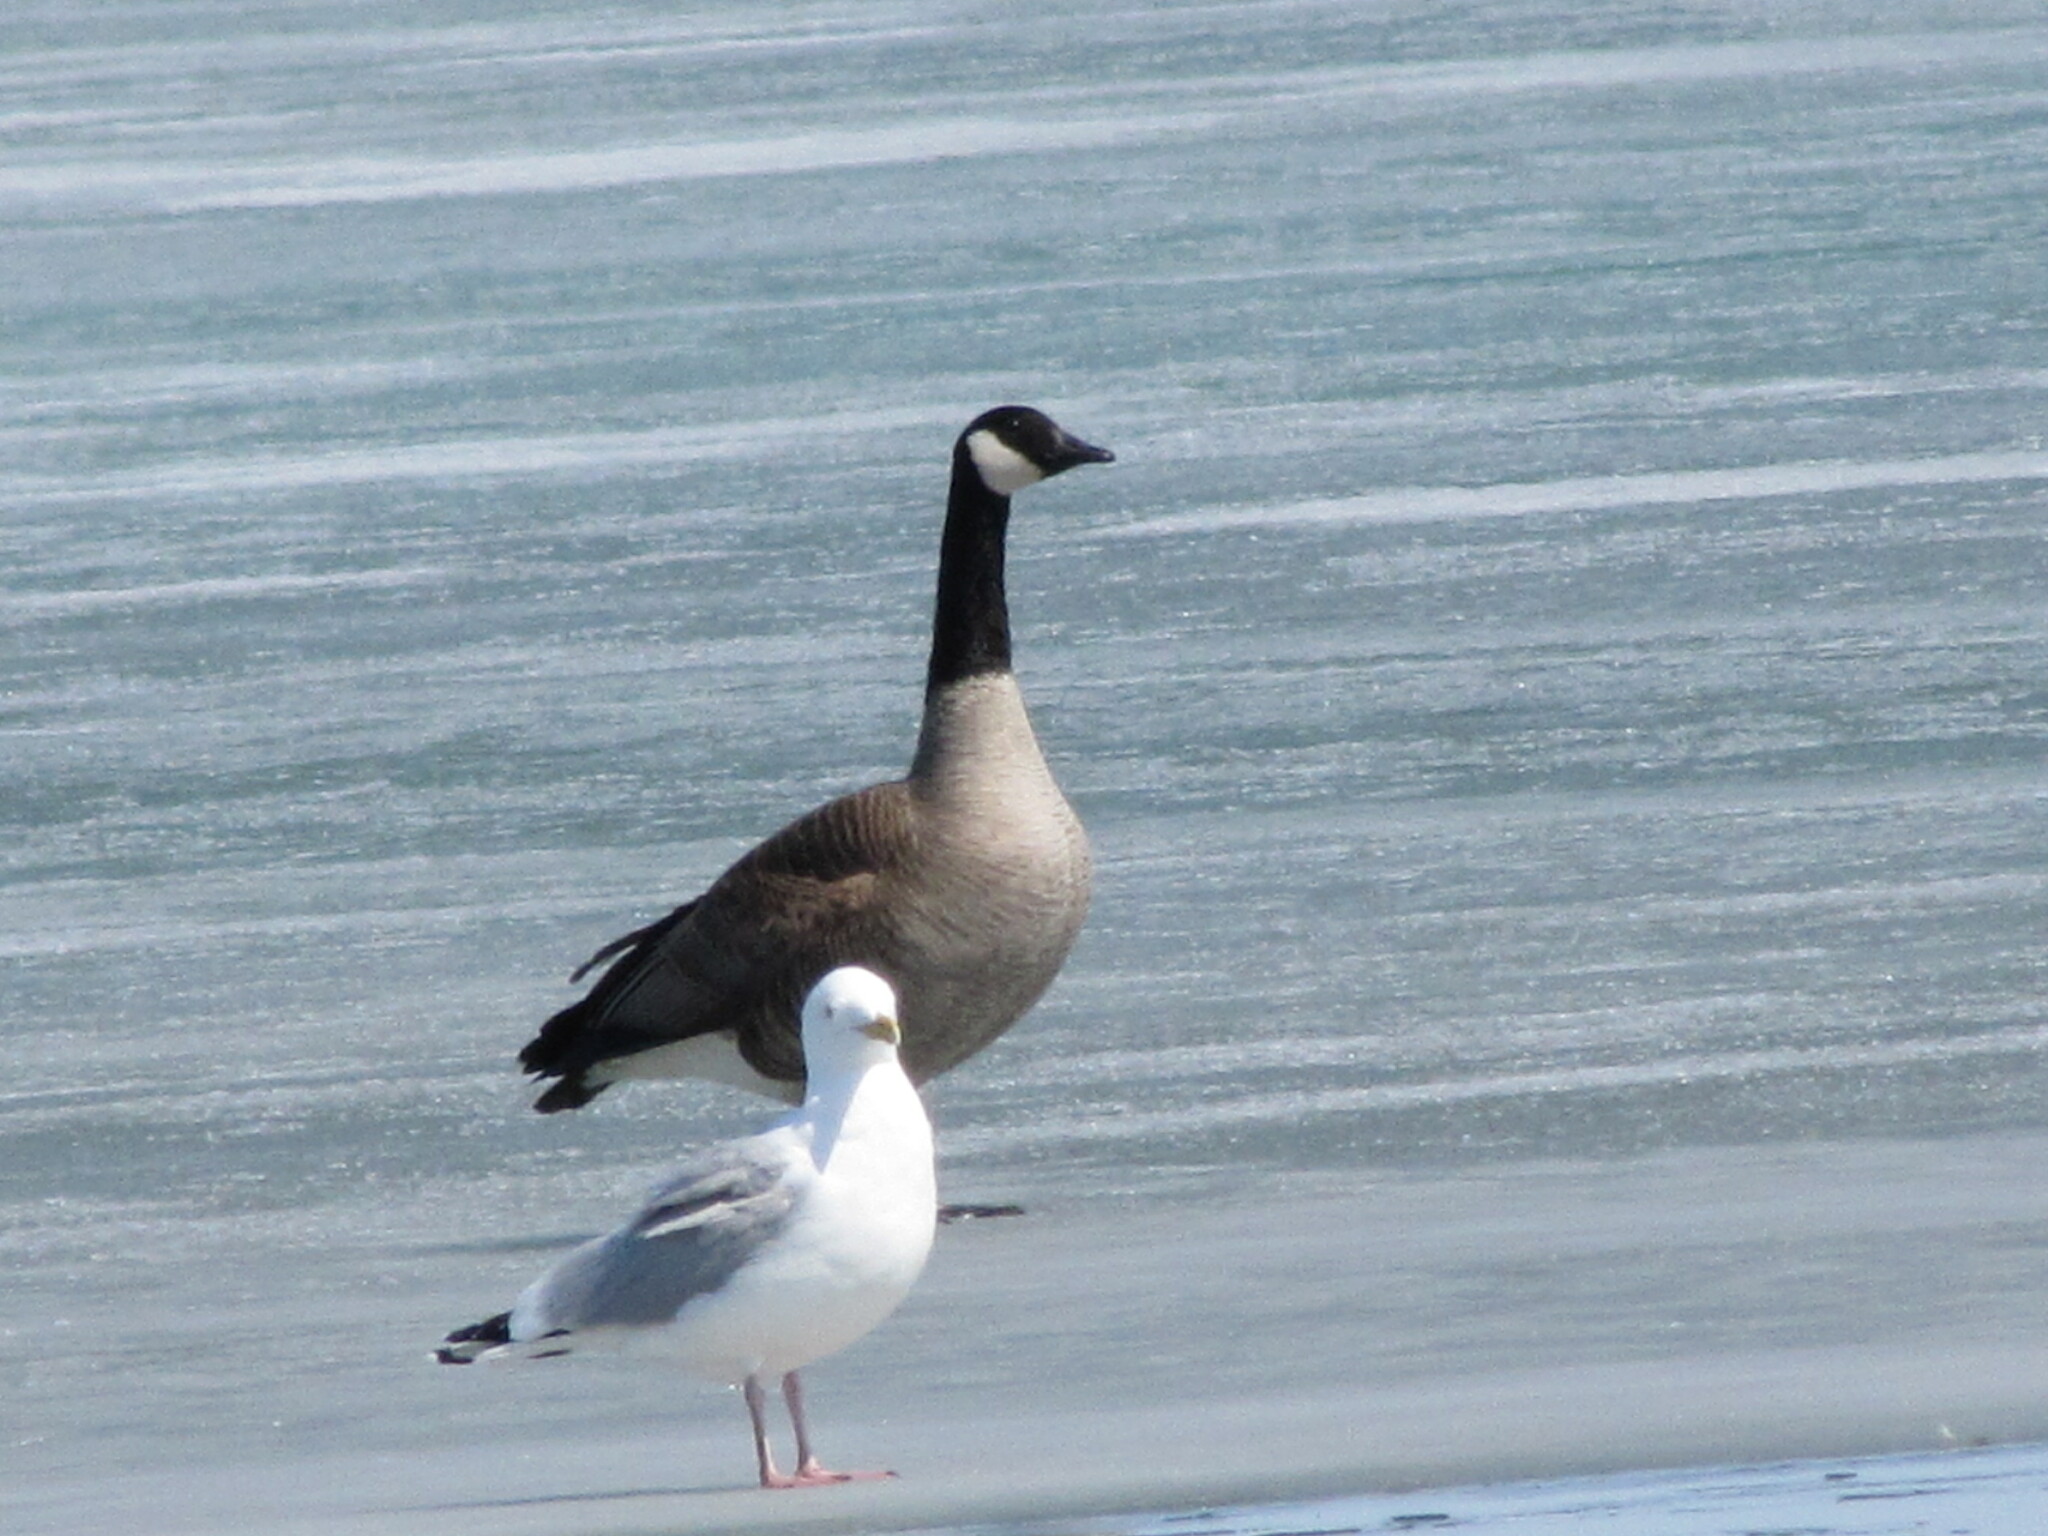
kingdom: Animalia
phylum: Chordata
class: Aves
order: Anseriformes
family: Anatidae
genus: Branta
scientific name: Branta canadensis
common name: Canada goose
